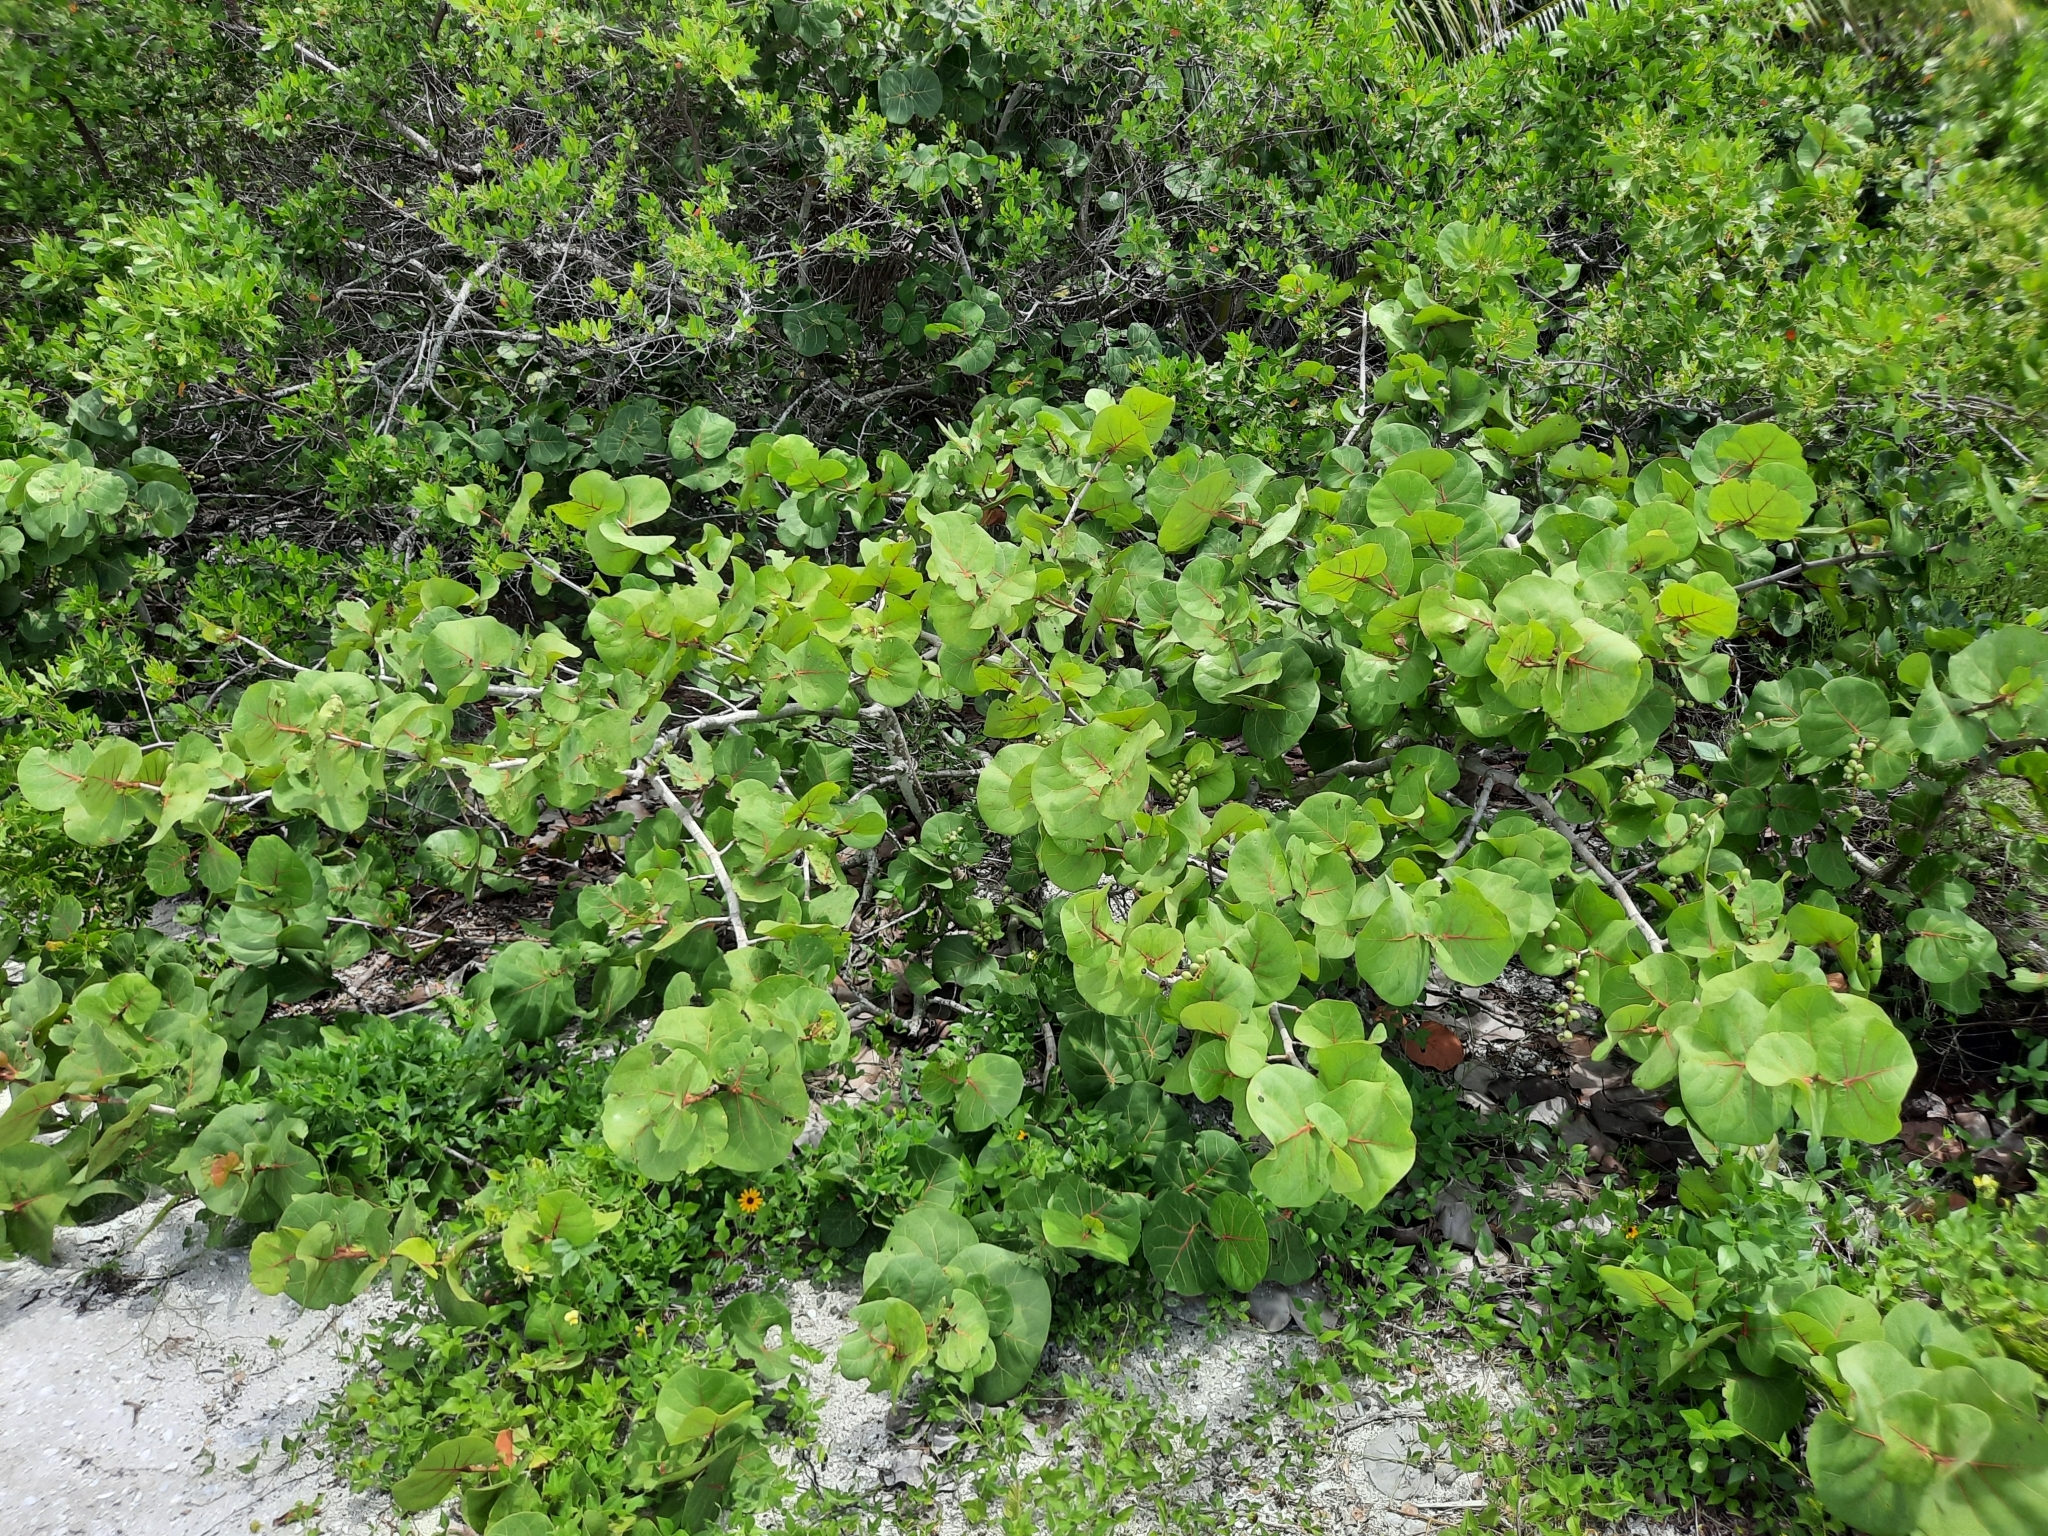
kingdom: Plantae
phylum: Tracheophyta
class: Magnoliopsida
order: Caryophyllales
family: Polygonaceae
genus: Coccoloba
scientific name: Coccoloba uvifera
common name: Seagrape
